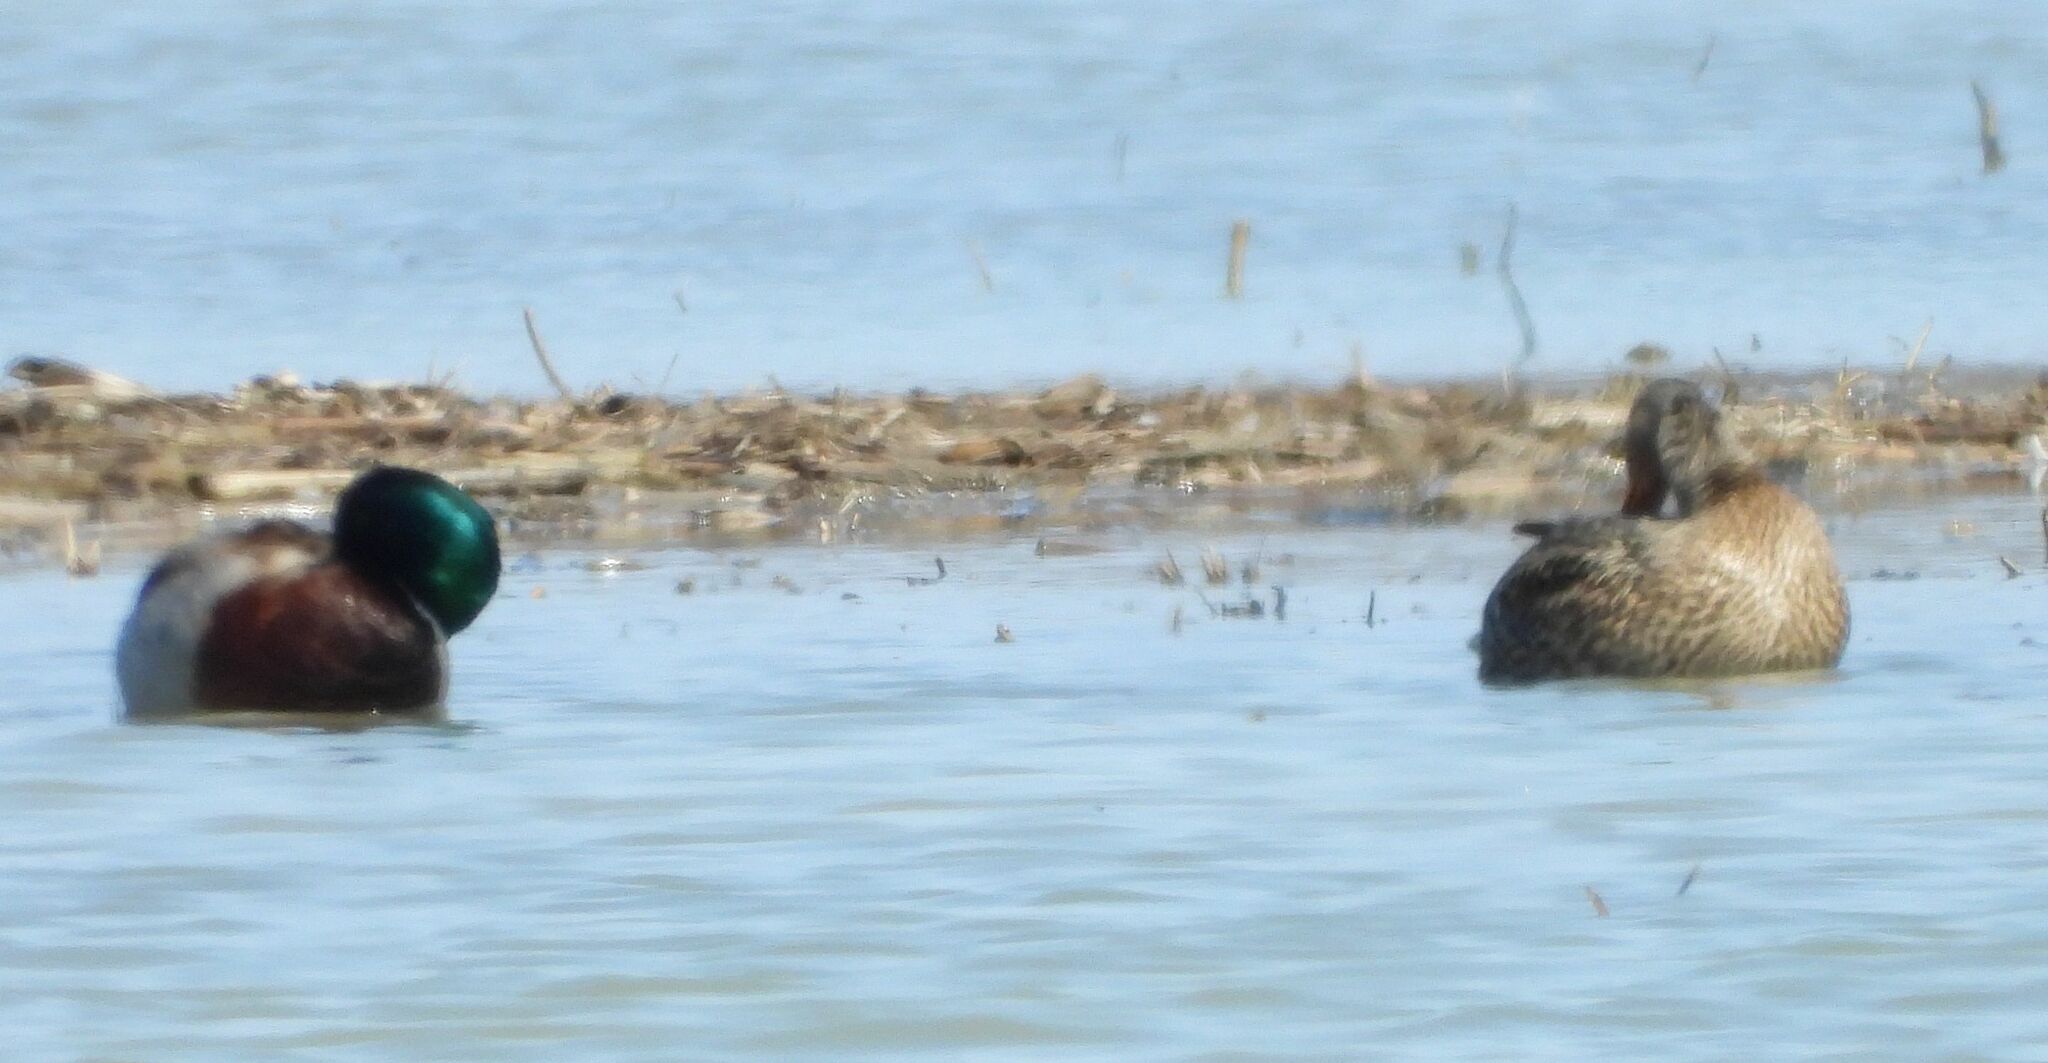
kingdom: Animalia
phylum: Chordata
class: Aves
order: Anseriformes
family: Anatidae
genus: Anas
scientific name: Anas platyrhynchos
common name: Mallard
